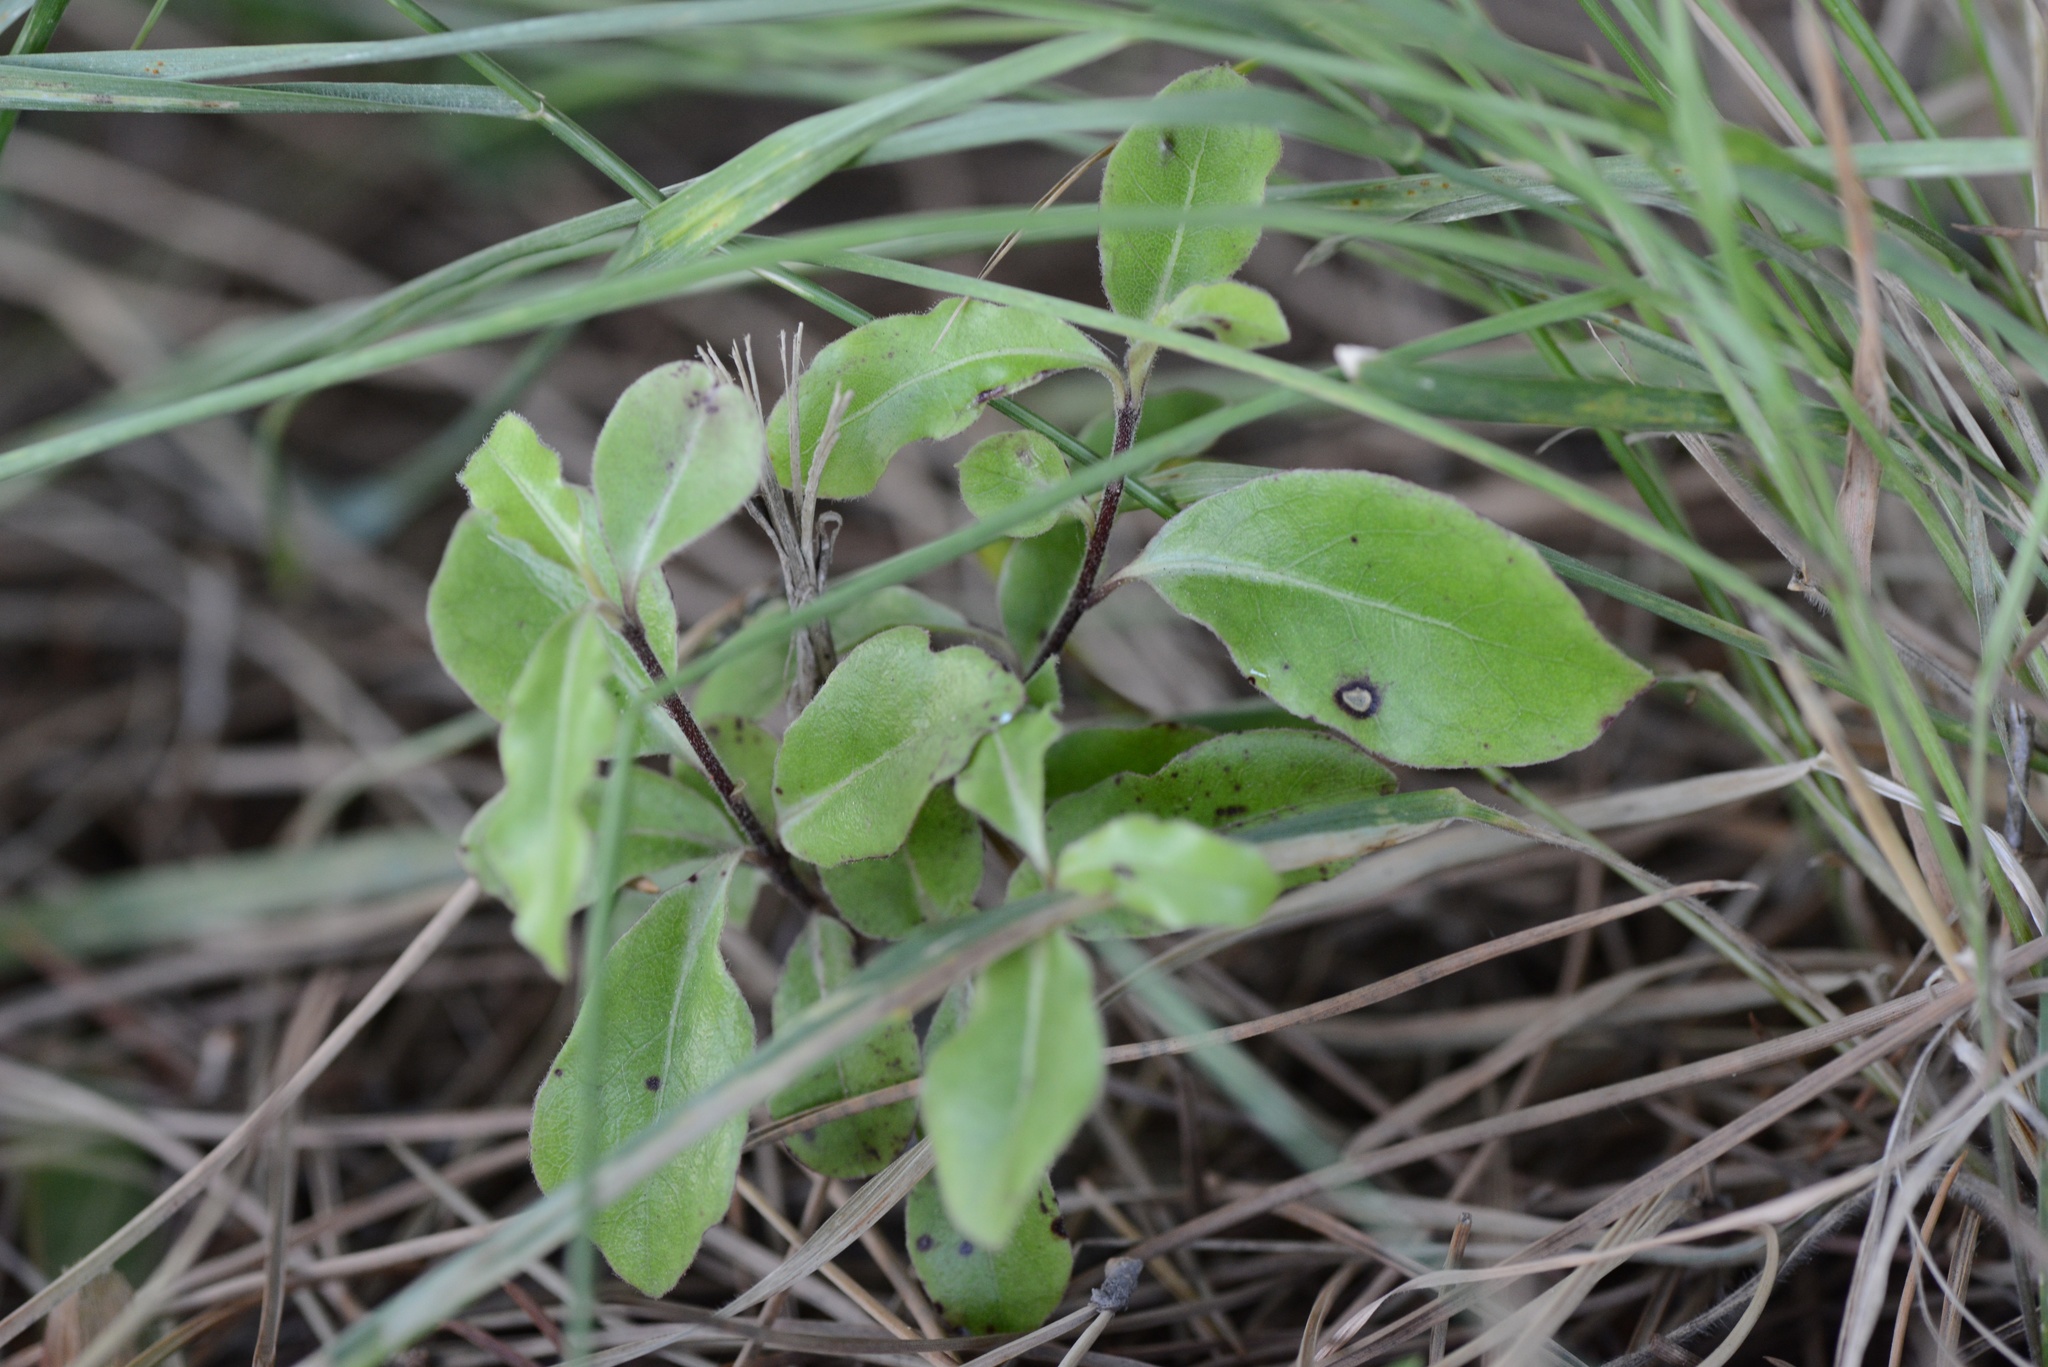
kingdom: Plantae
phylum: Tracheophyta
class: Magnoliopsida
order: Apiales
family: Pittosporaceae
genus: Pittosporum
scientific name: Pittosporum tenuifolium
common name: Kohuhu
